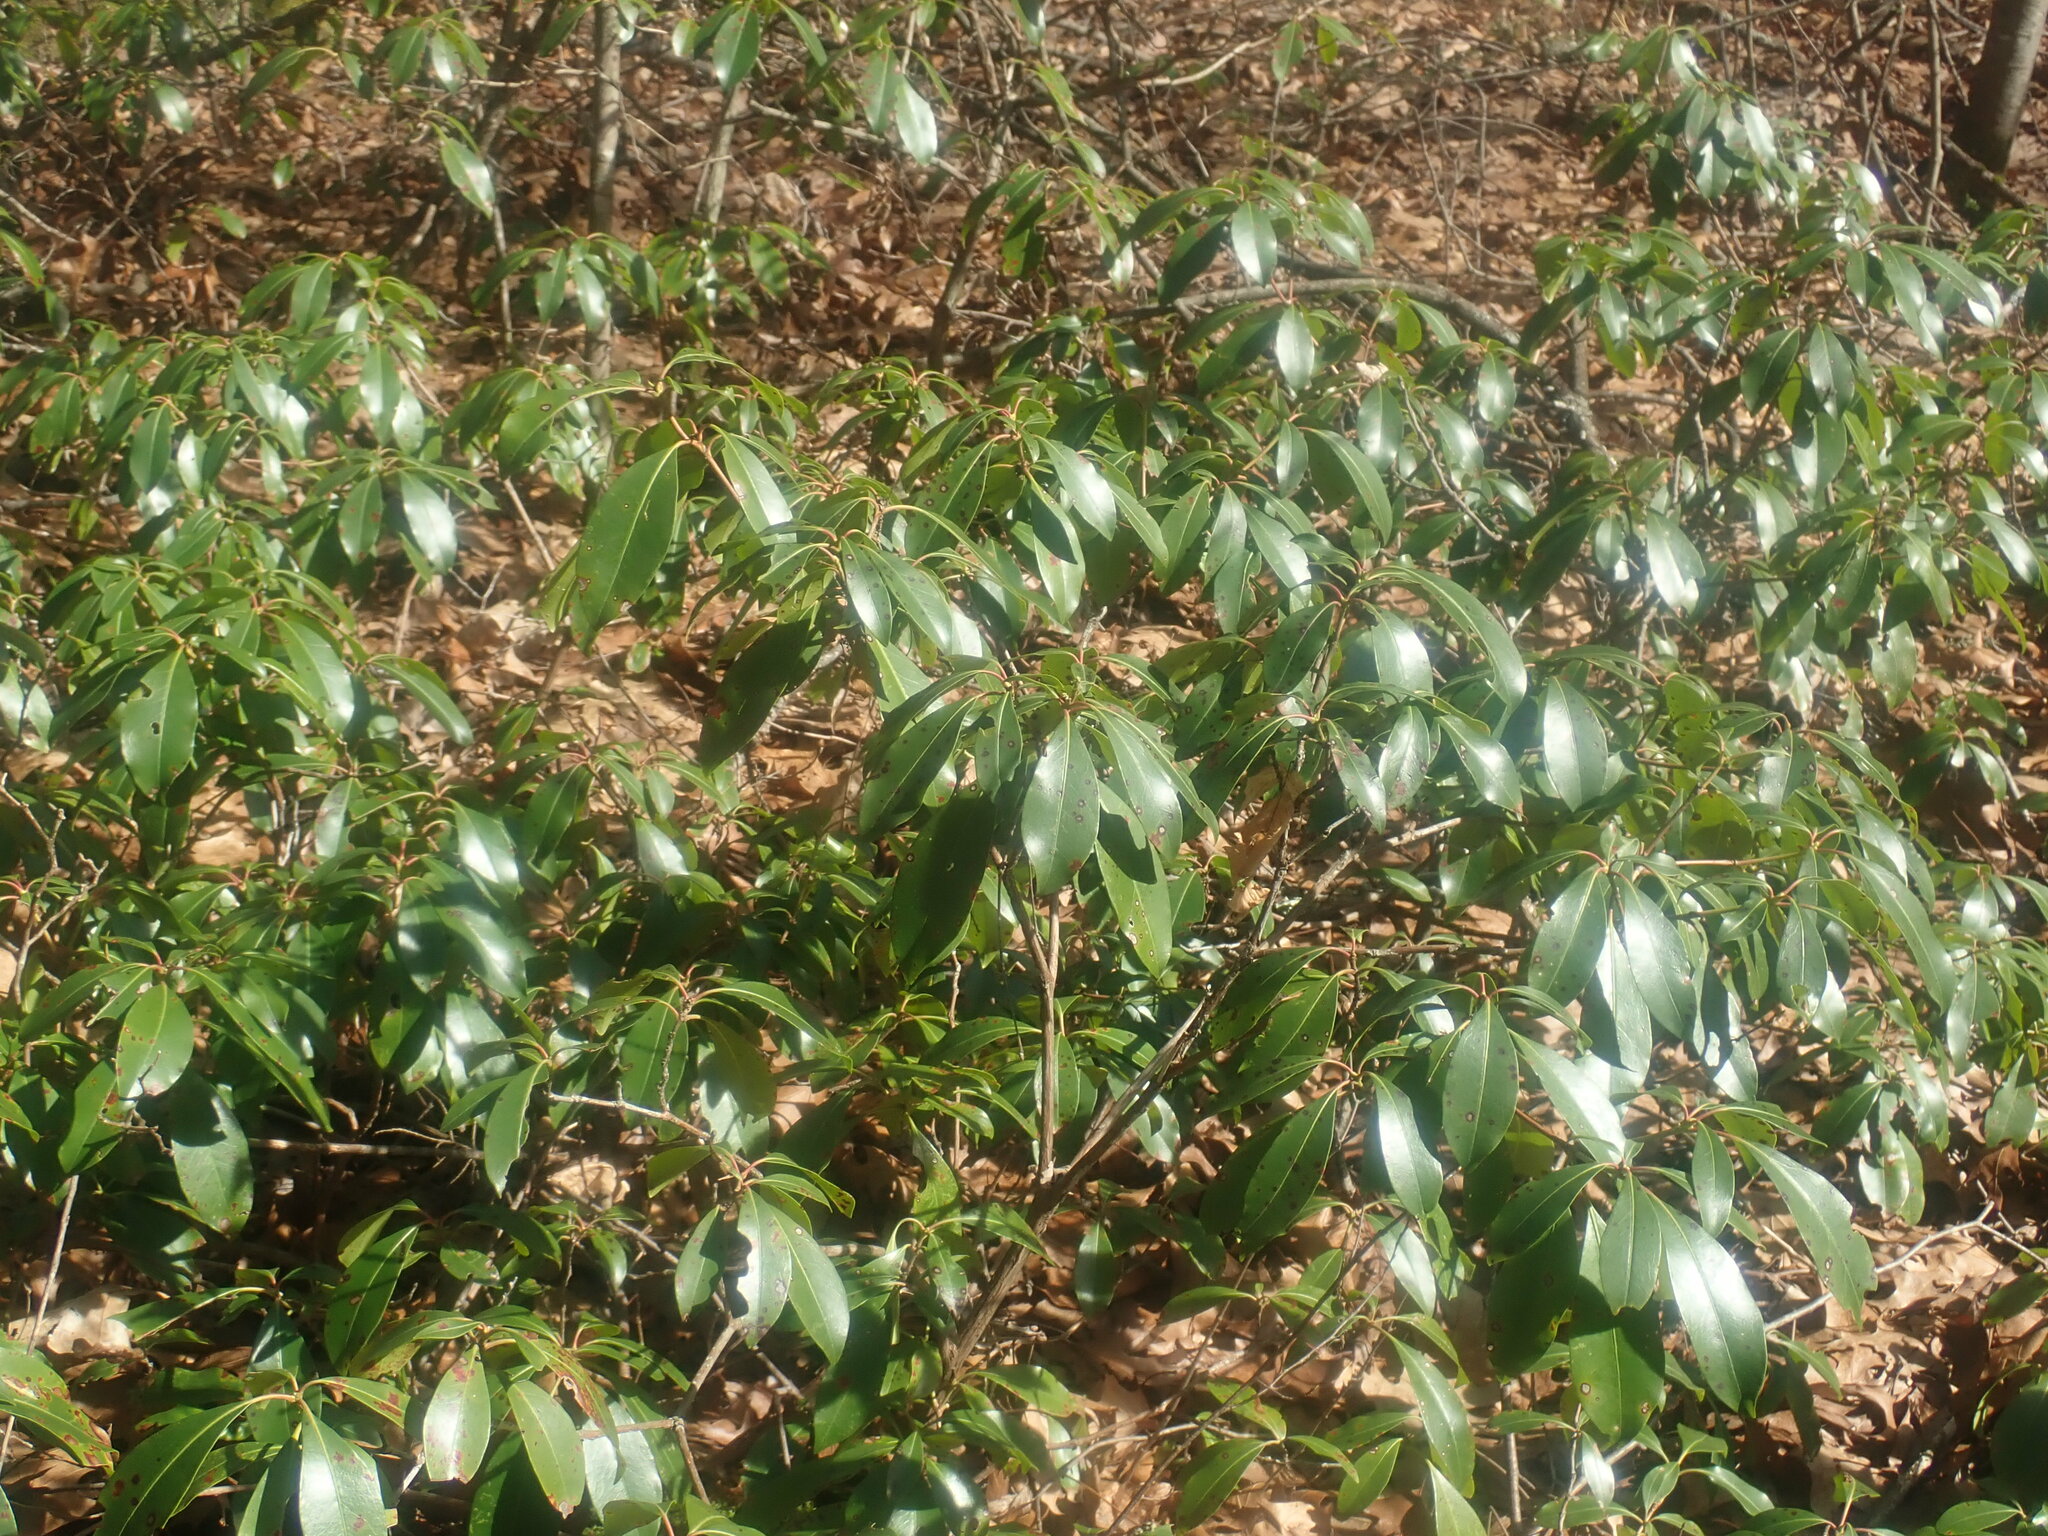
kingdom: Plantae
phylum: Tracheophyta
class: Magnoliopsida
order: Ericales
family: Ericaceae
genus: Kalmia
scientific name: Kalmia latifolia
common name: Mountain-laurel
